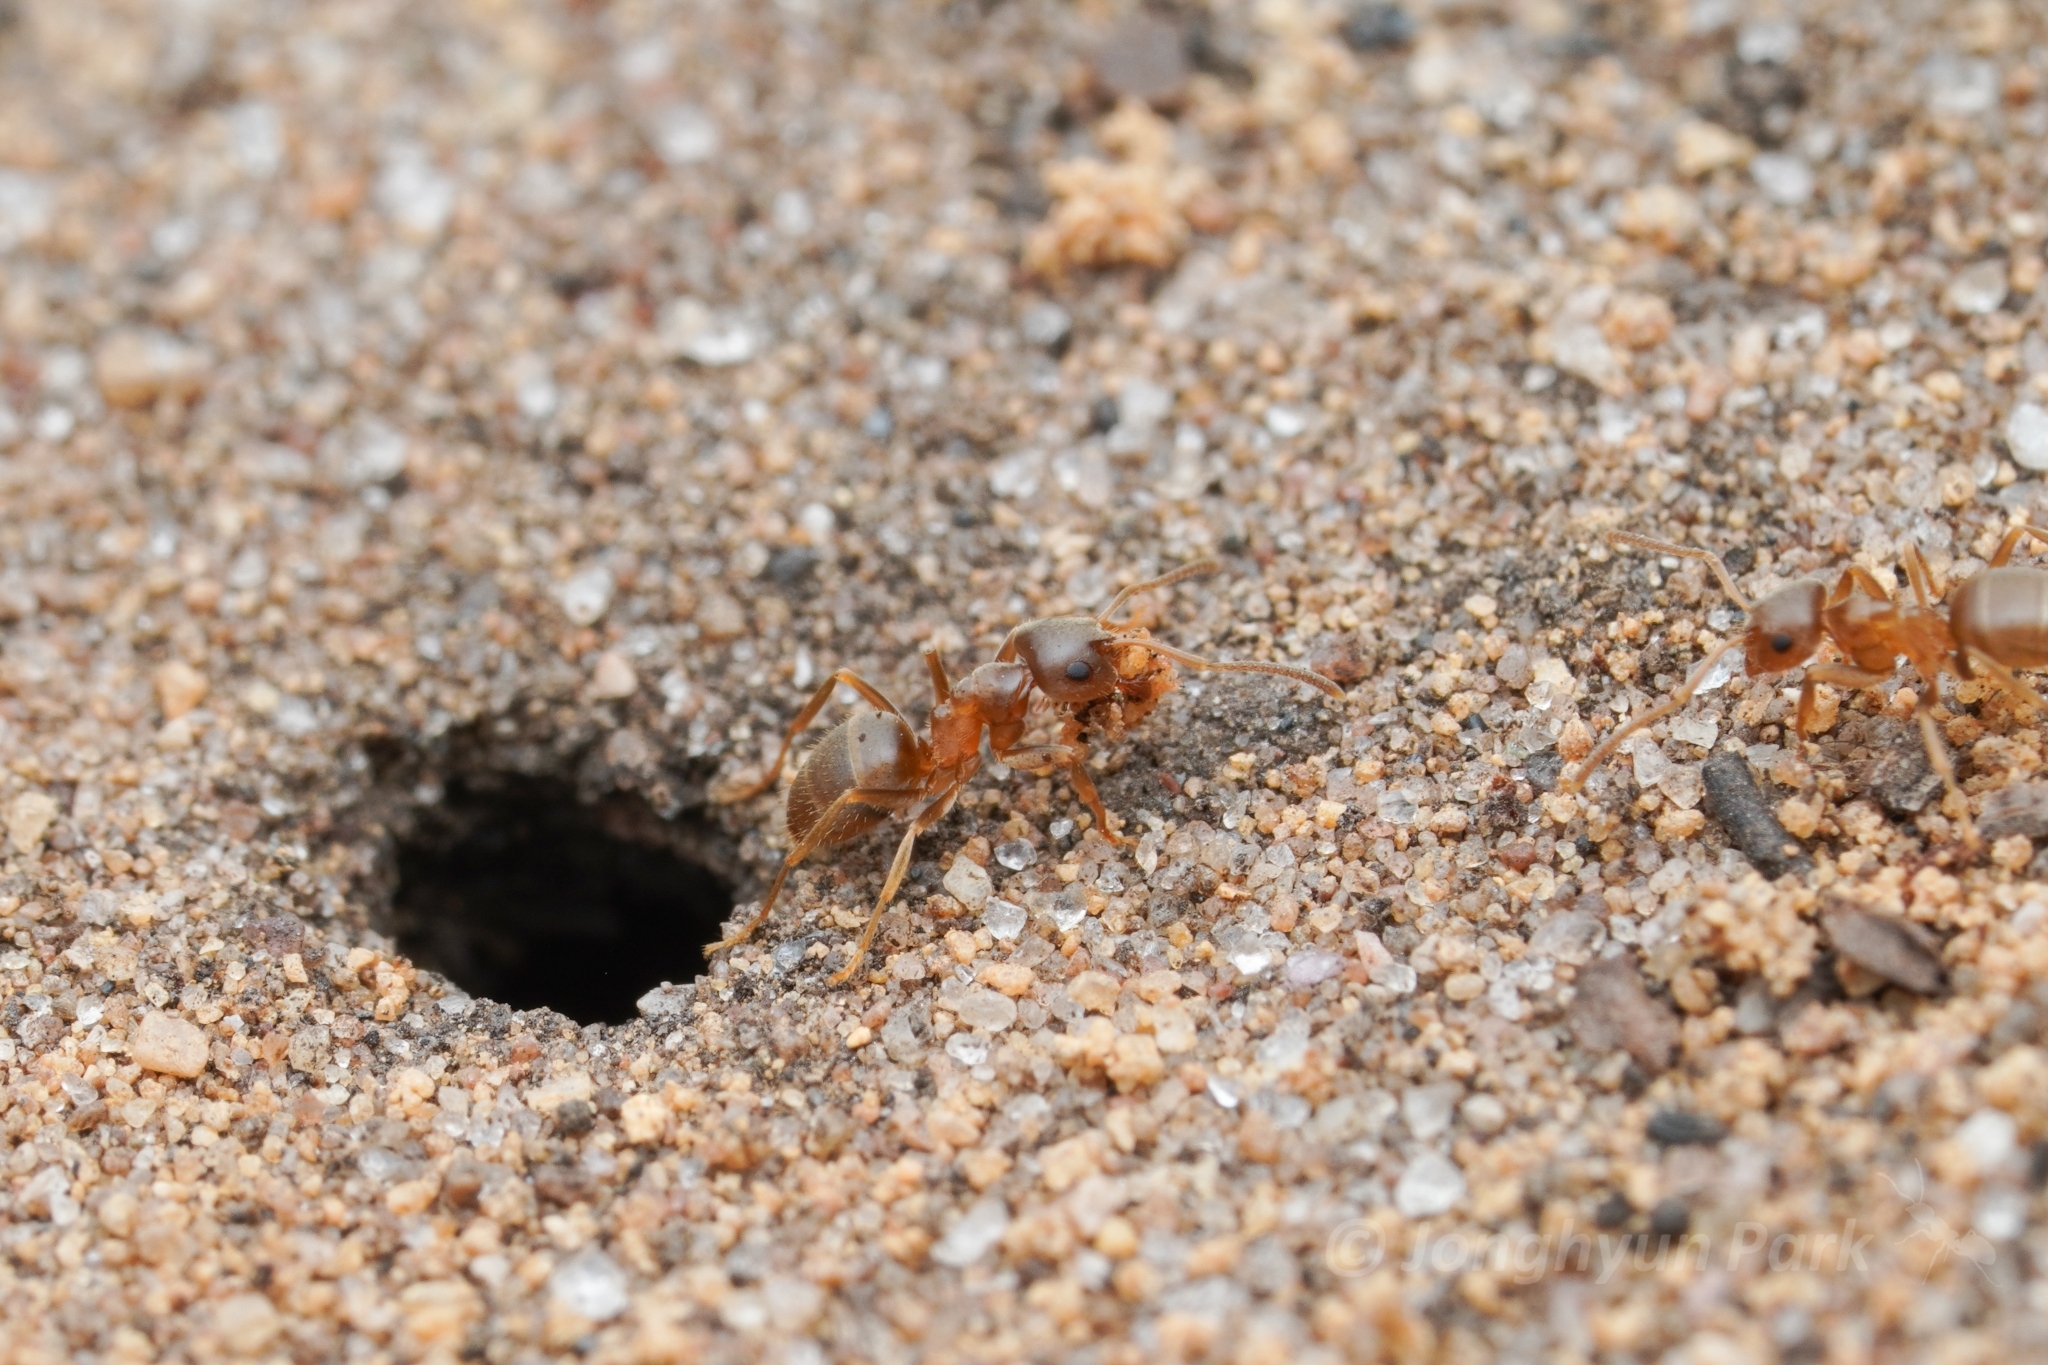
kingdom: Animalia
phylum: Arthropoda
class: Insecta
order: Hymenoptera
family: Formicidae
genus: Lasius
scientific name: Lasius neoniger
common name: Turfgrass ant
